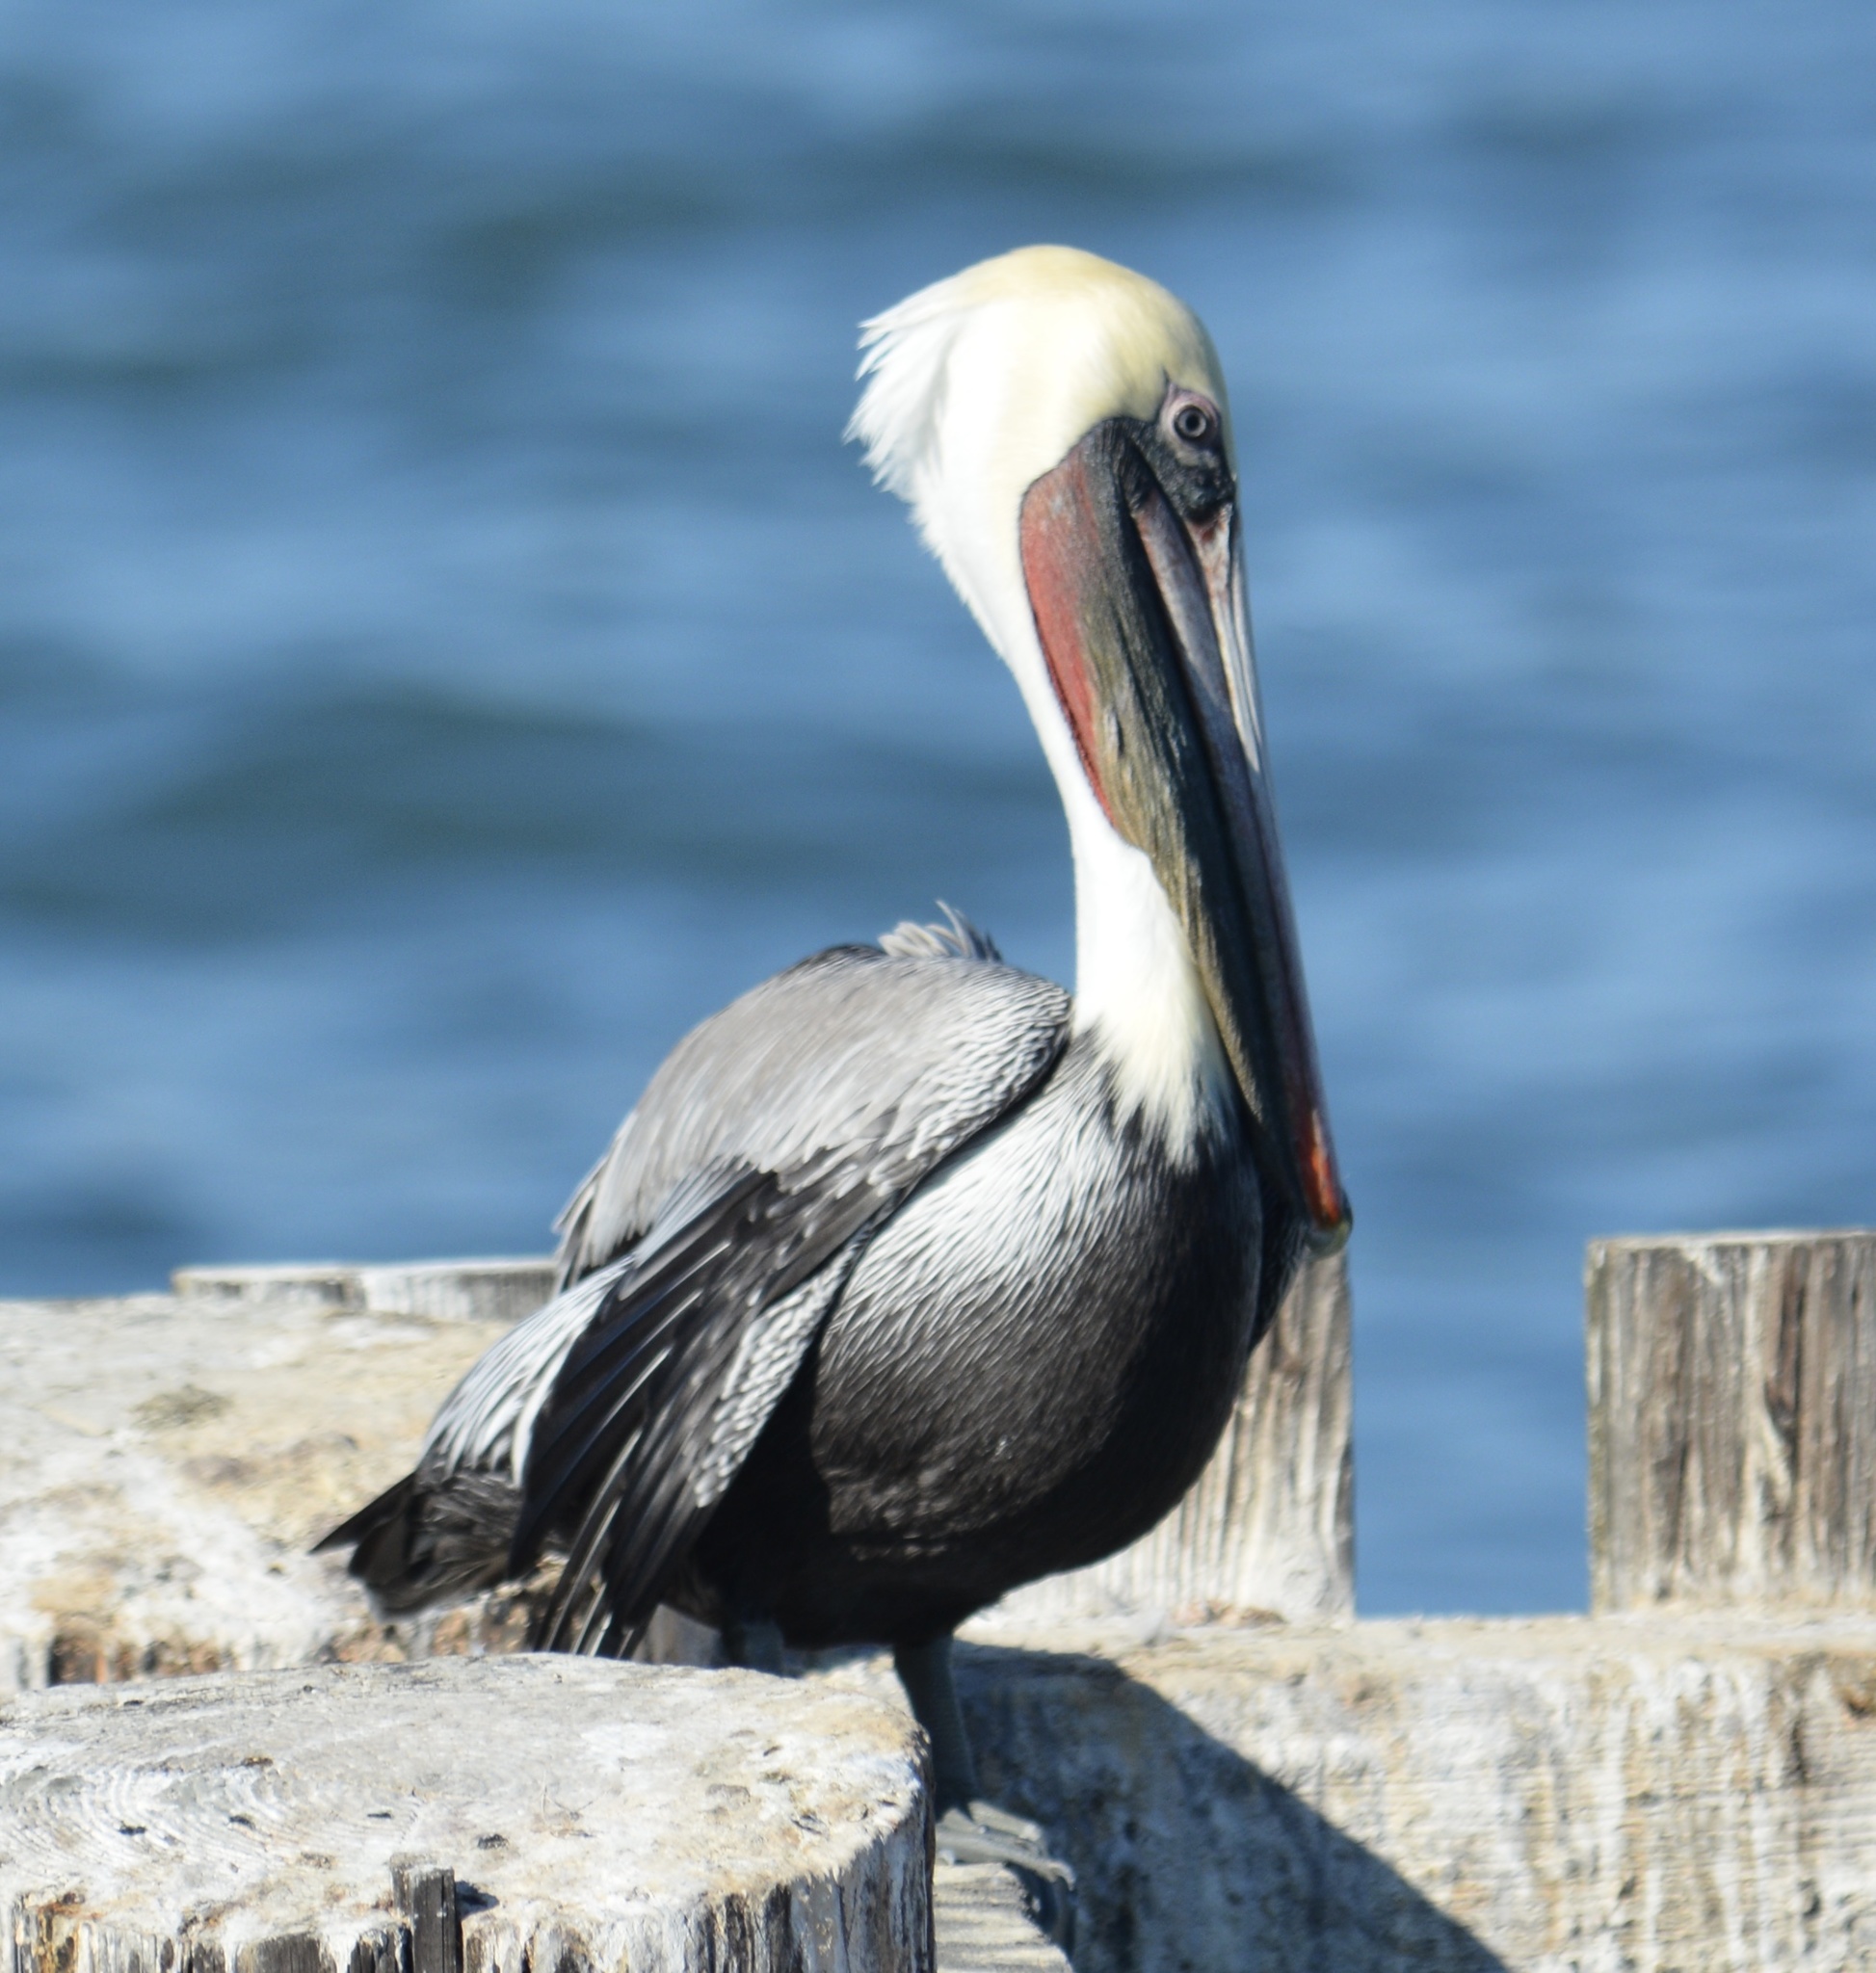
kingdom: Animalia
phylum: Chordata
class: Aves
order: Pelecaniformes
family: Pelecanidae
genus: Pelecanus
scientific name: Pelecanus occidentalis
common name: Brown pelican
